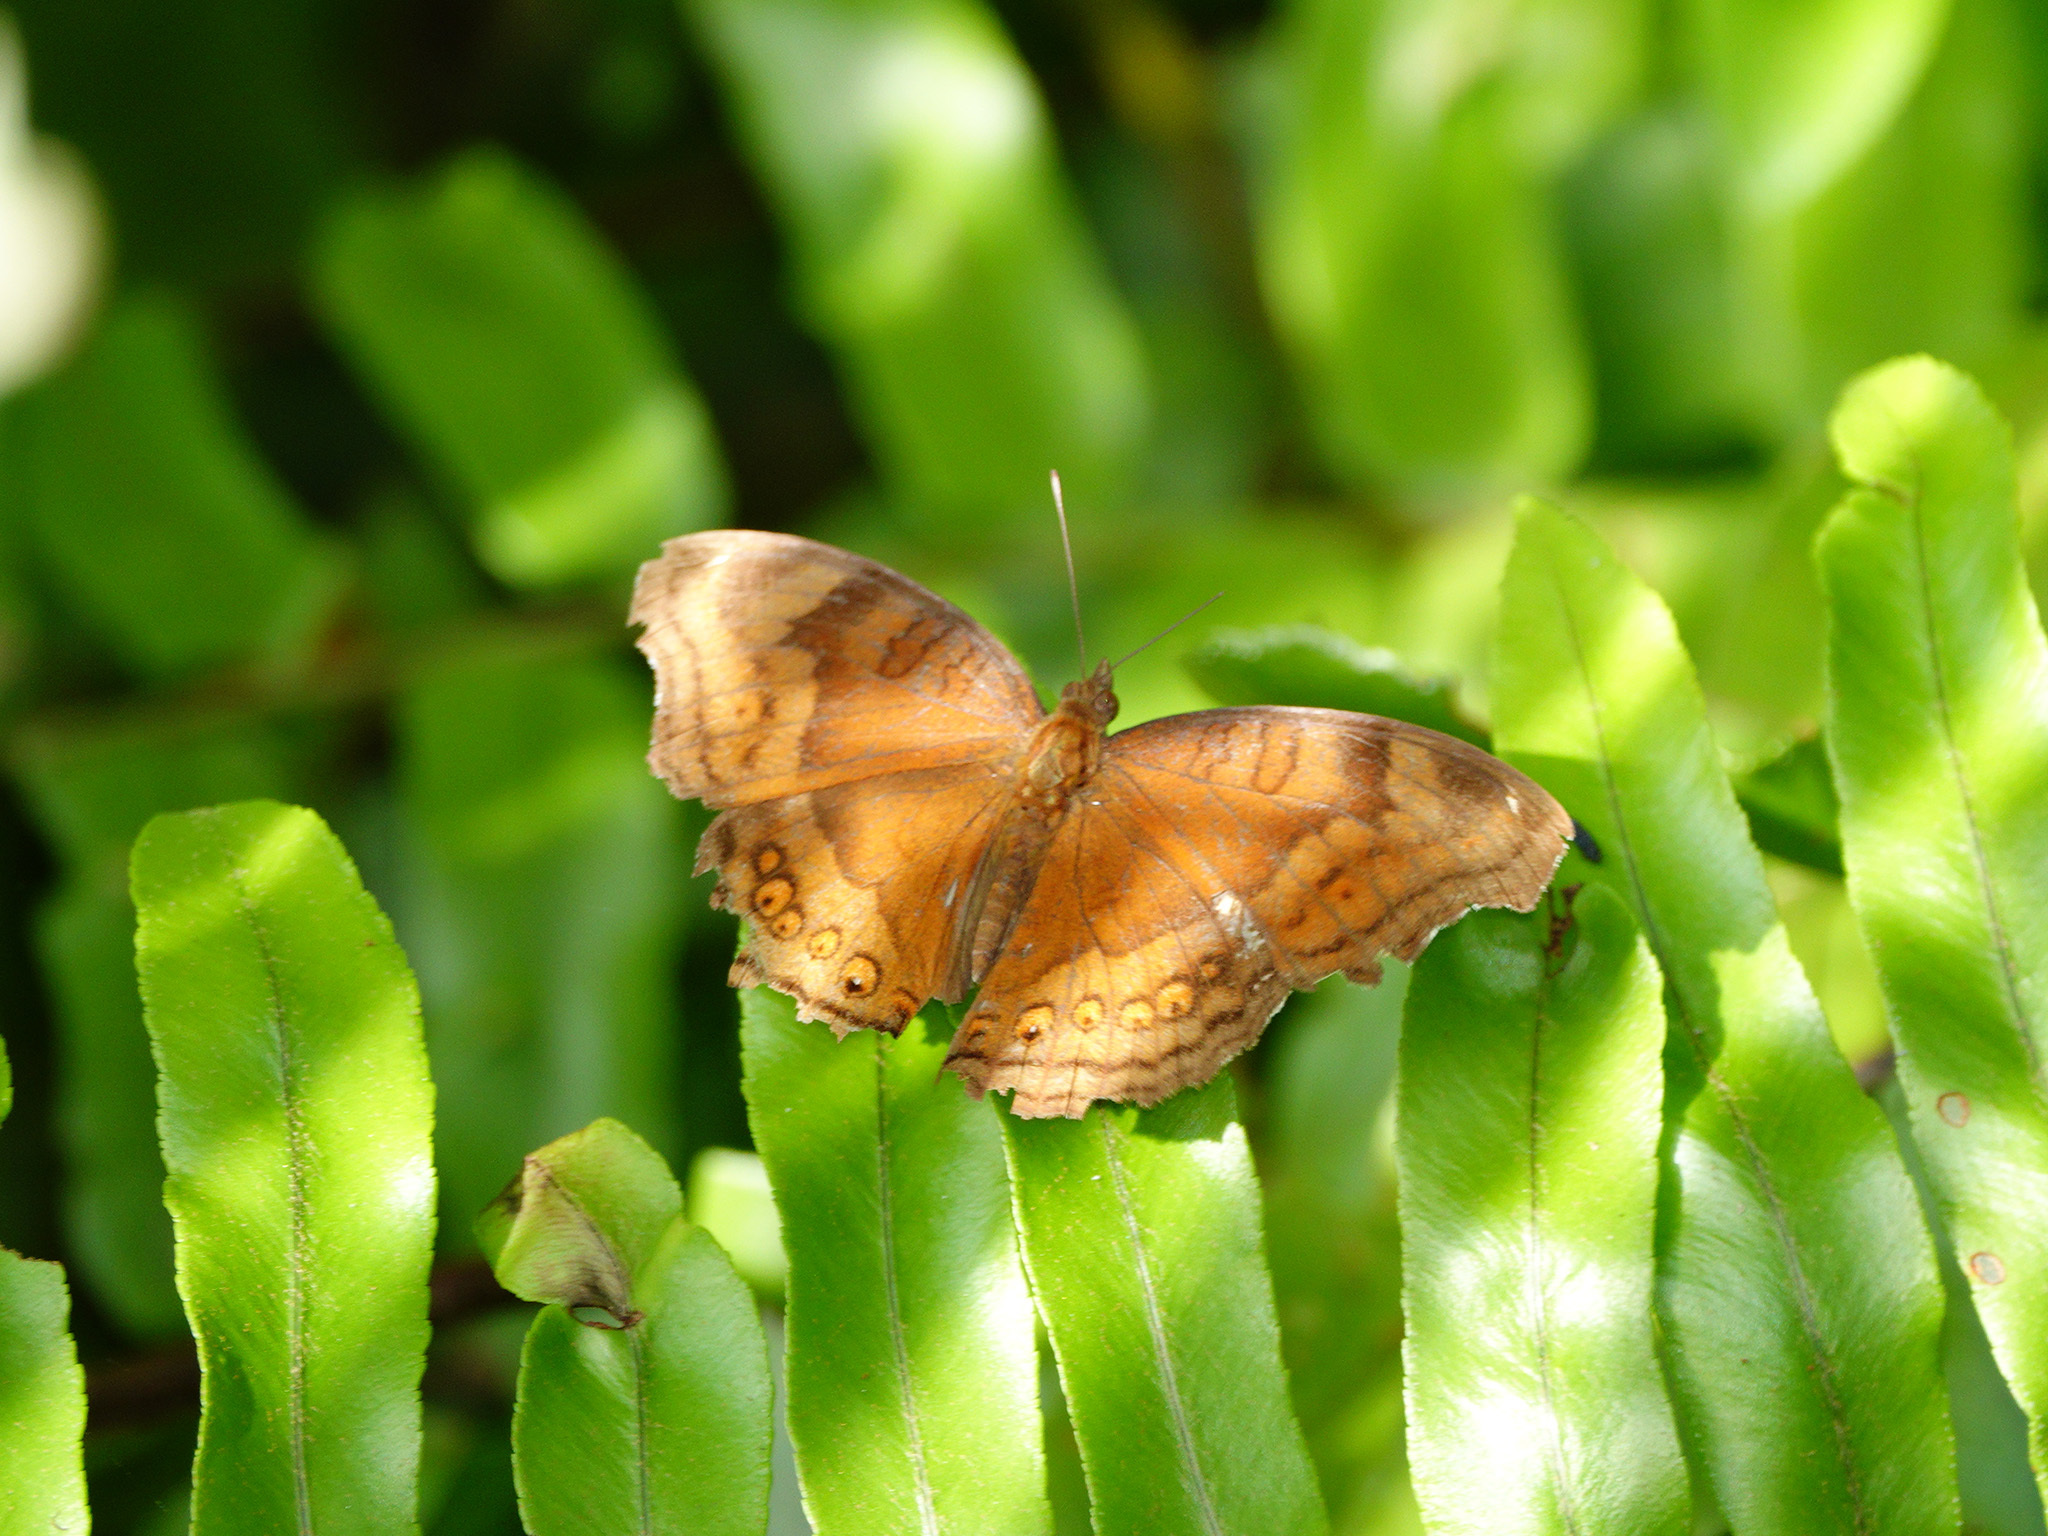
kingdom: Animalia
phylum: Arthropoda
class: Insecta
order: Lepidoptera
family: Nymphalidae
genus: Junonia
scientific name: Junonia hedonia
